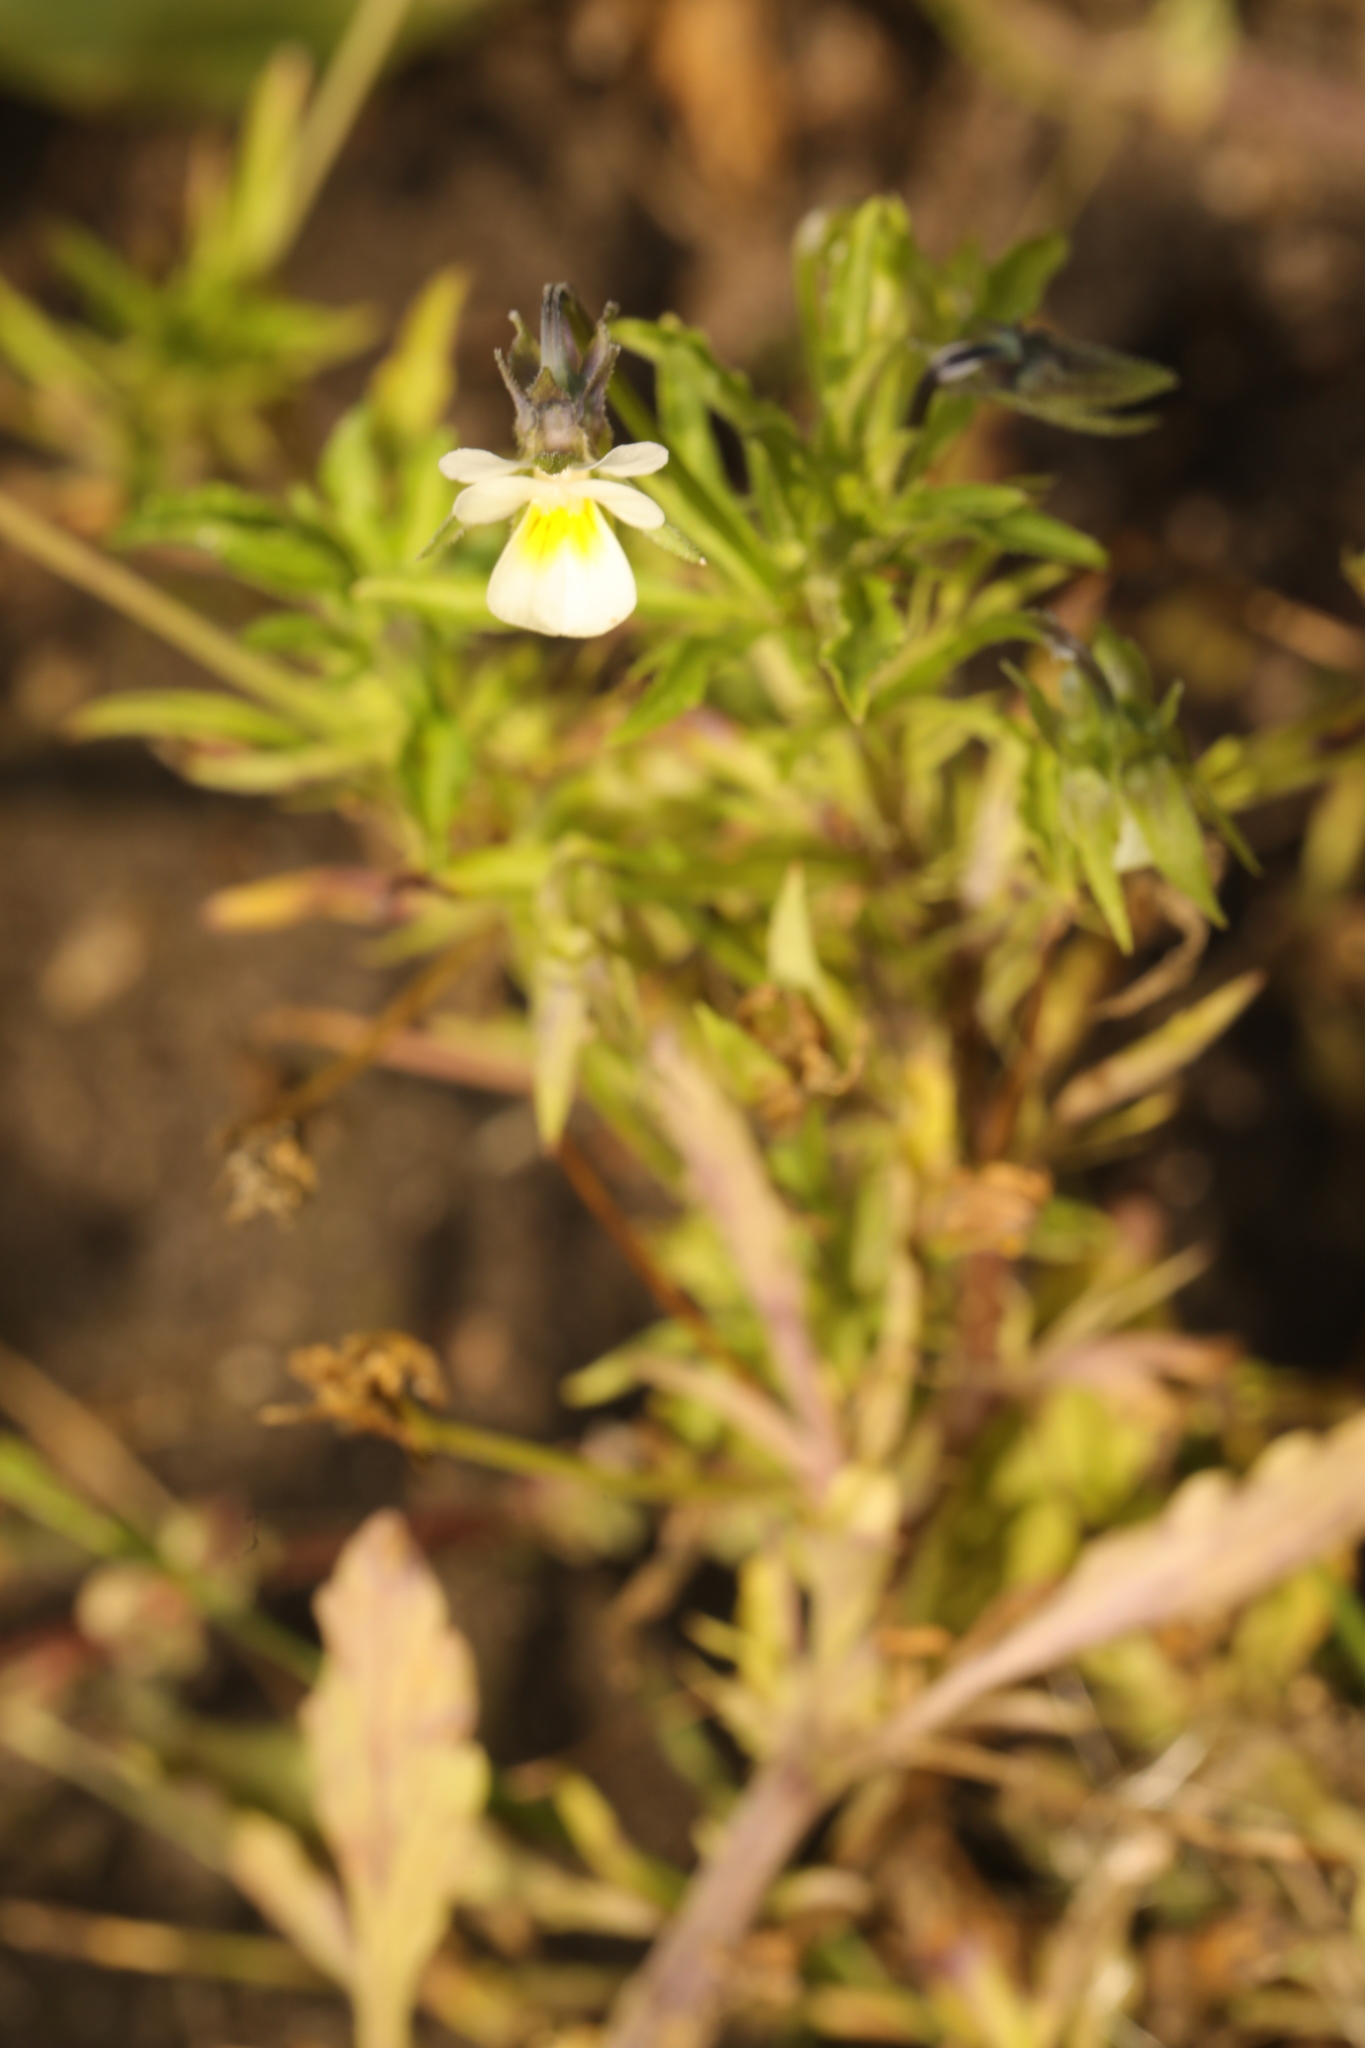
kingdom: Plantae
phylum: Tracheophyta
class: Magnoliopsida
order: Malpighiales
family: Violaceae
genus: Viola
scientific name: Viola arvensis
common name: Field pansy
